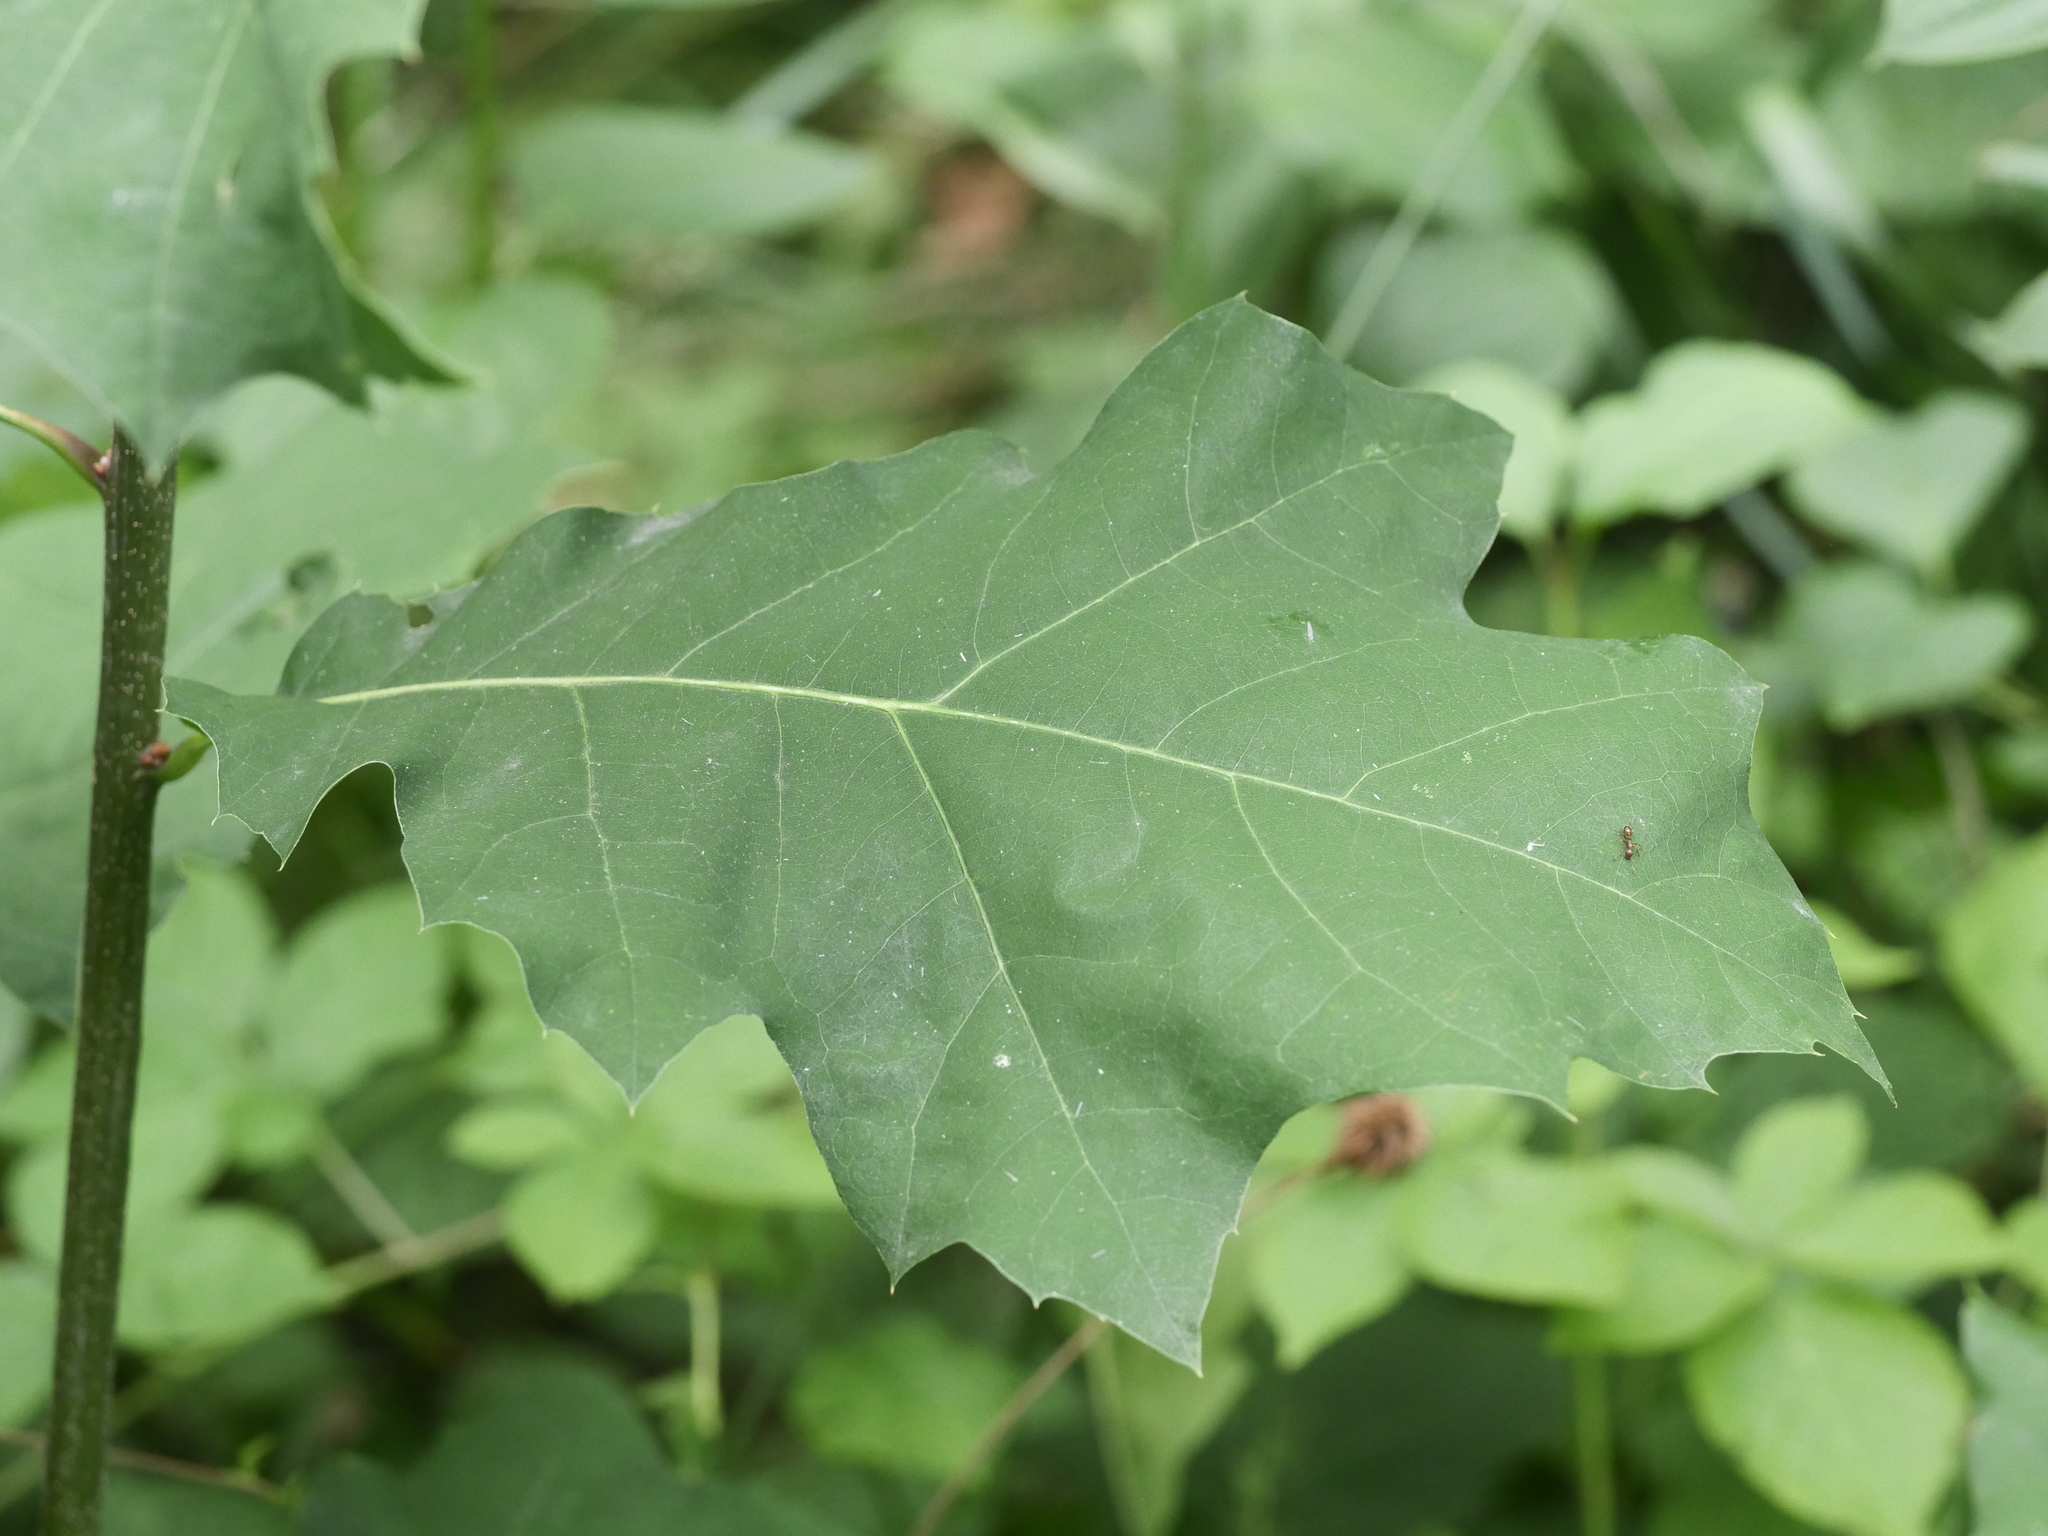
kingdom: Plantae
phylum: Tracheophyta
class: Magnoliopsida
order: Fagales
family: Fagaceae
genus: Quercus
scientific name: Quercus rubra
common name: Red oak
